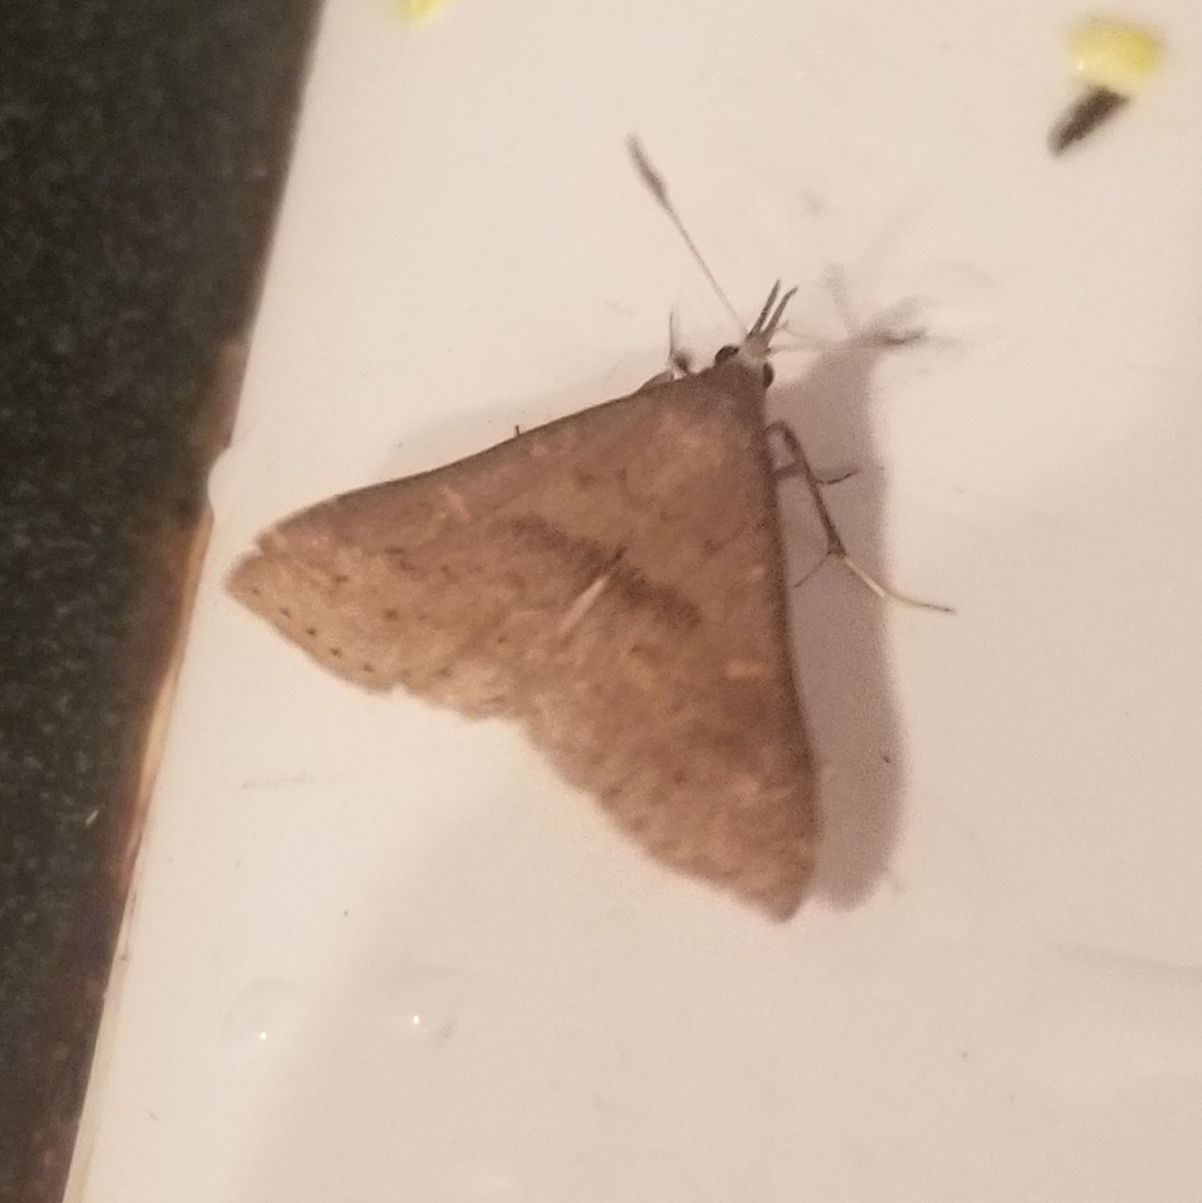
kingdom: Animalia
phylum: Arthropoda
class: Insecta
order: Lepidoptera
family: Erebidae
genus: Renia
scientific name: Renia adspergillus
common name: Speckled renia moth
